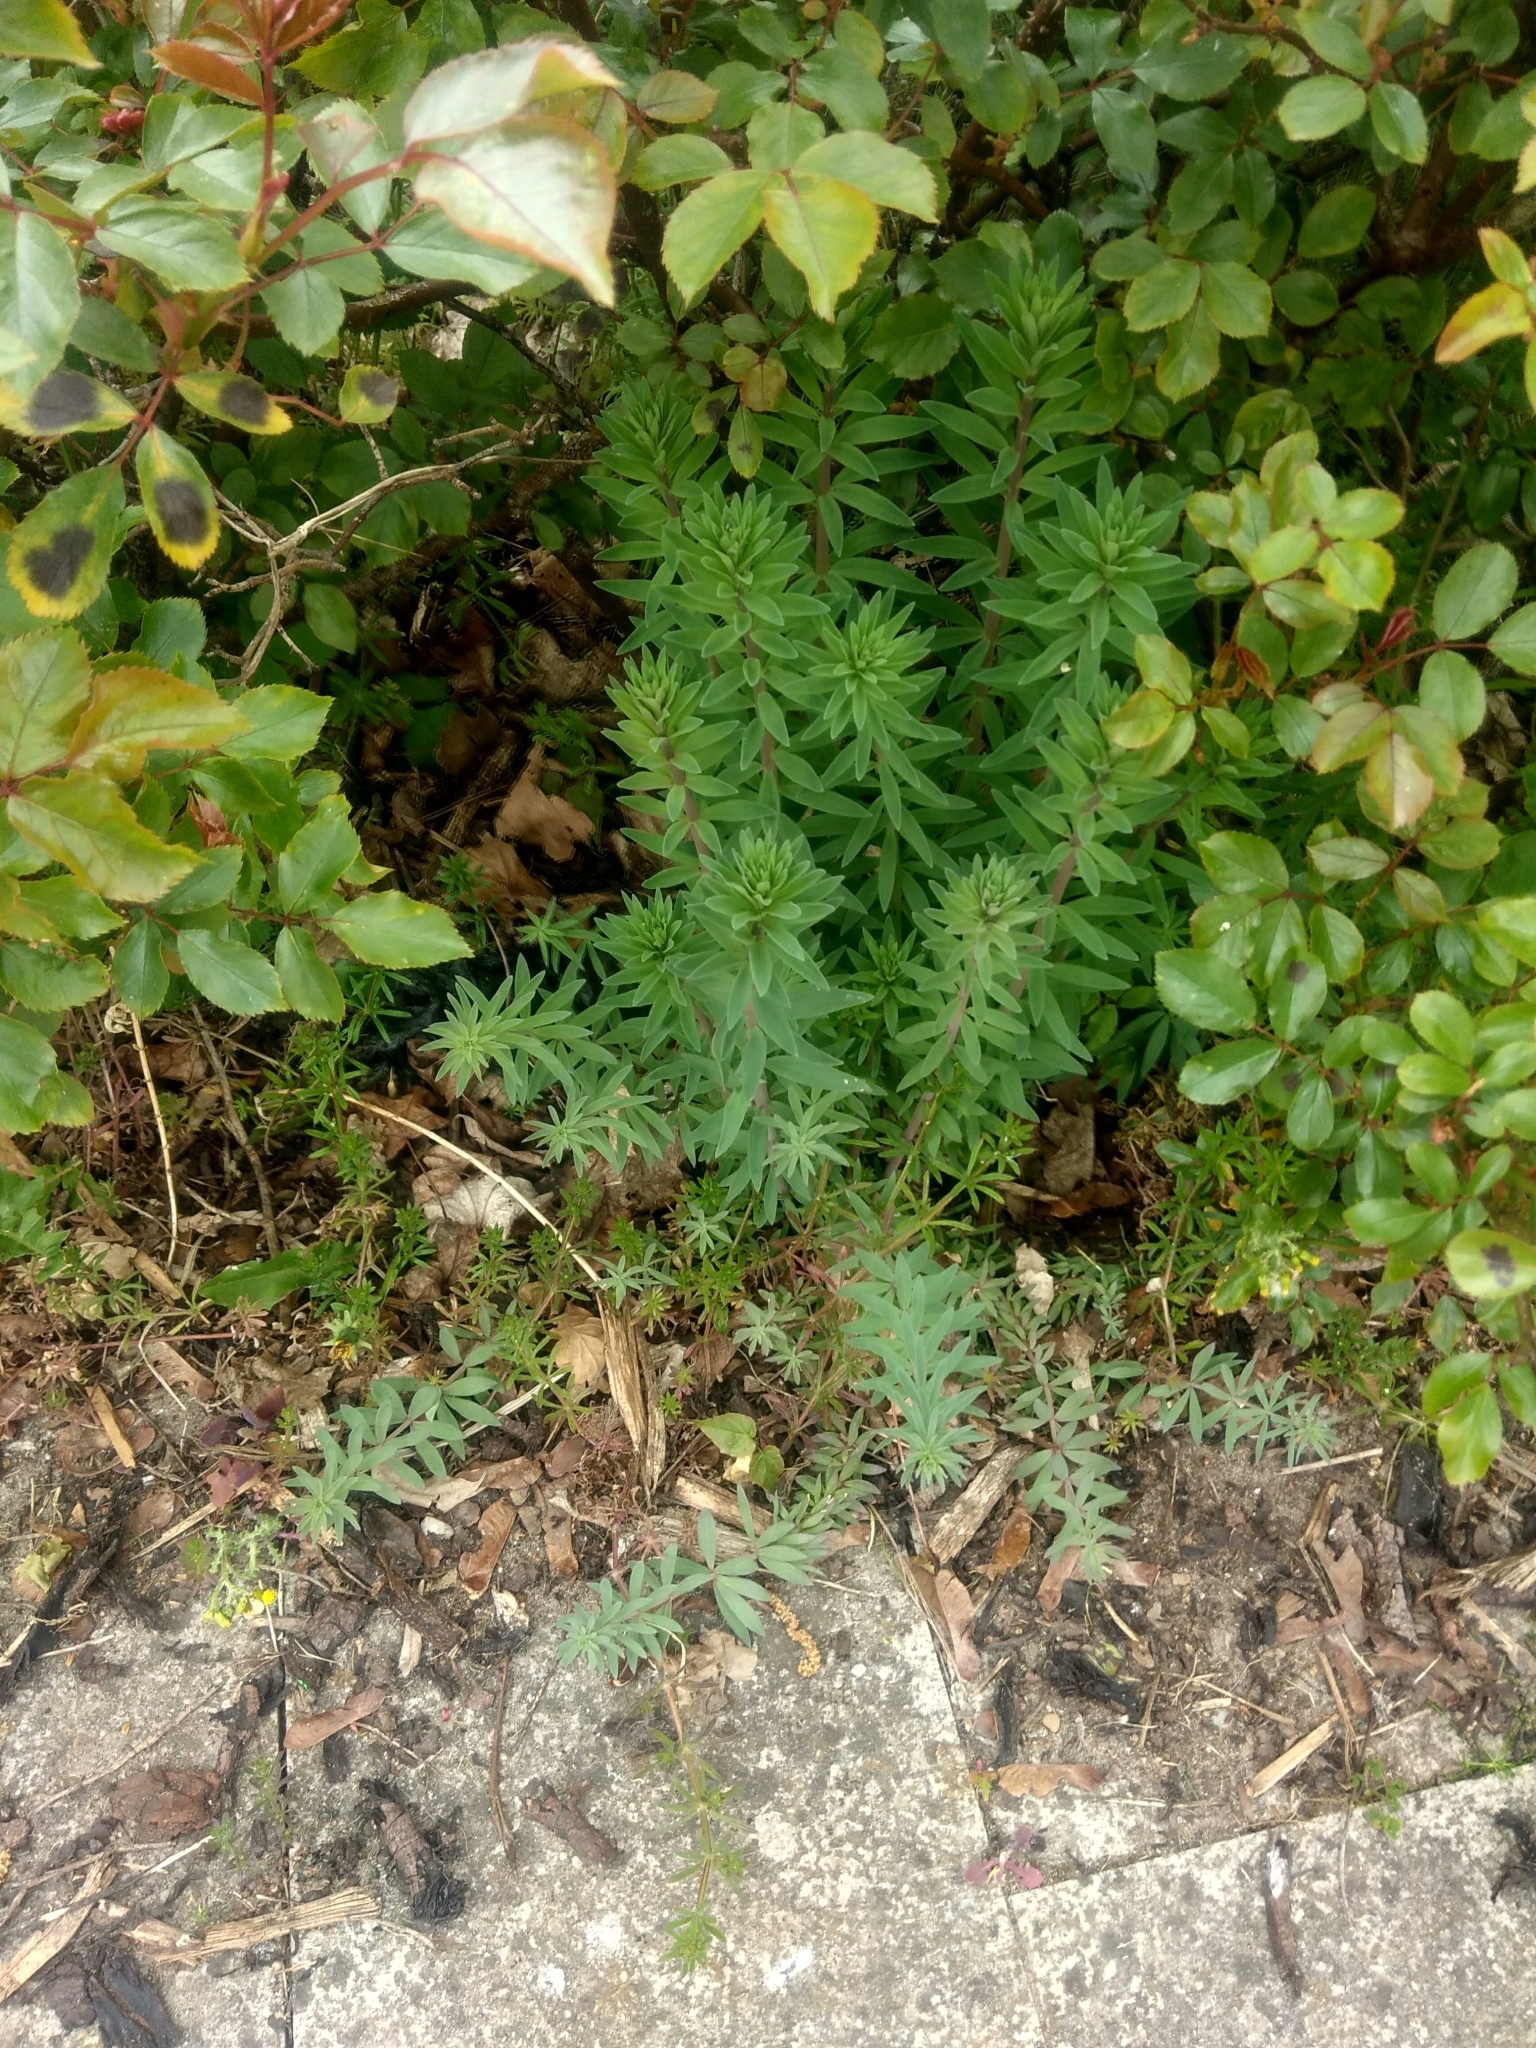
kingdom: Plantae
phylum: Tracheophyta
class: Magnoliopsida
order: Lamiales
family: Plantaginaceae
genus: Linaria
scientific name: Linaria purpurea
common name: Purple toadflax
